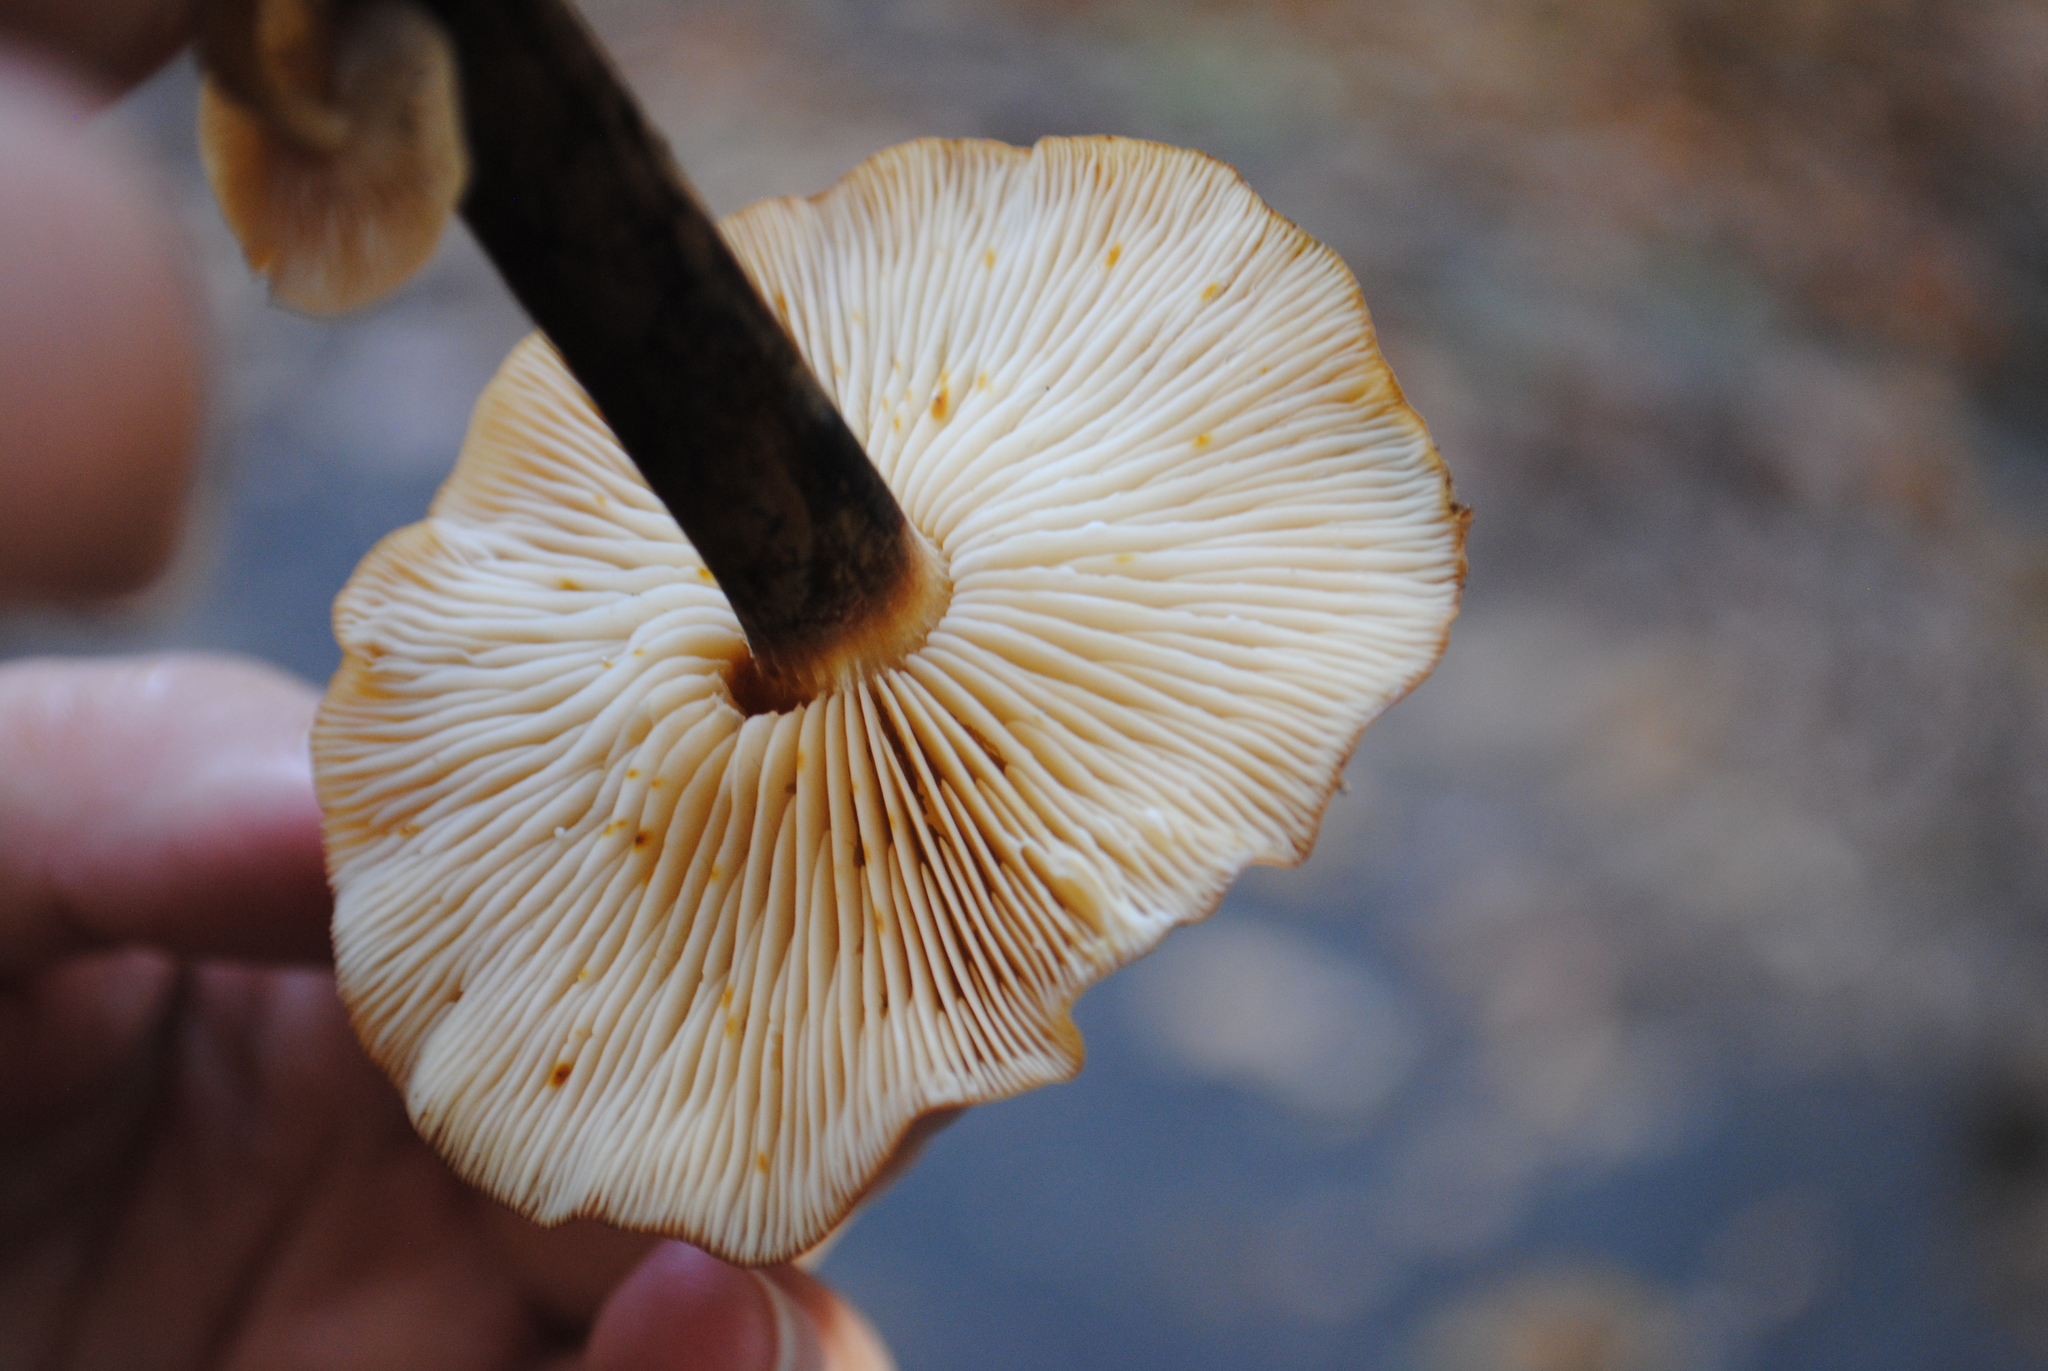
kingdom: Fungi
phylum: Basidiomycota
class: Agaricomycetes
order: Agaricales
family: Physalacriaceae
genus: Flammulina
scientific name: Flammulina velutipes
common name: Velvet shank
